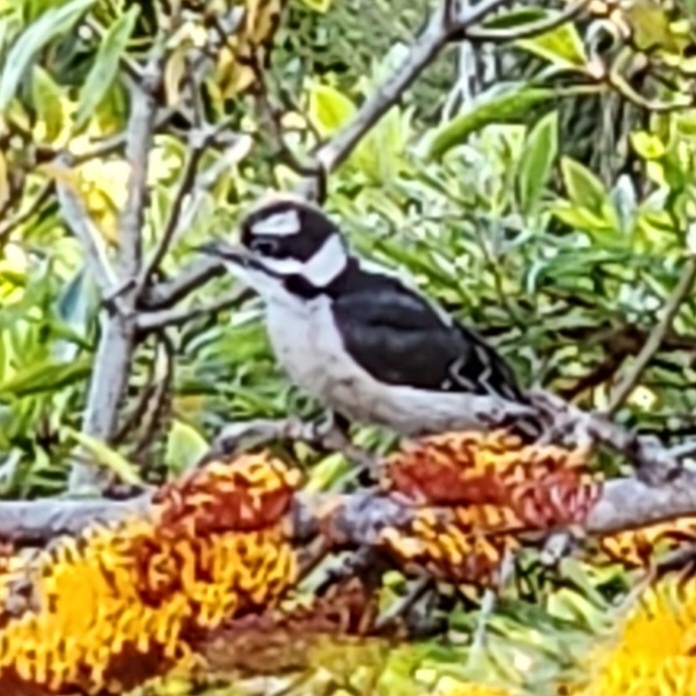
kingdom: Animalia
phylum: Chordata
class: Aves
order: Piciformes
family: Picidae
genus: Dryobates
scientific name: Dryobates pubescens
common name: Downy woodpecker
